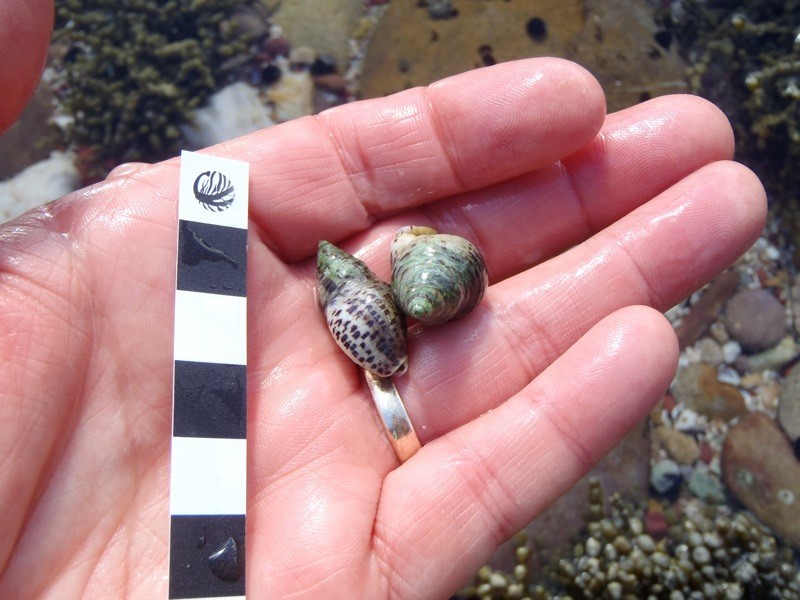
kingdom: Animalia
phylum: Mollusca
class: Gastropoda
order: Neogastropoda
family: Cominellidae
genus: Cominella
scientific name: Cominella lineolata
